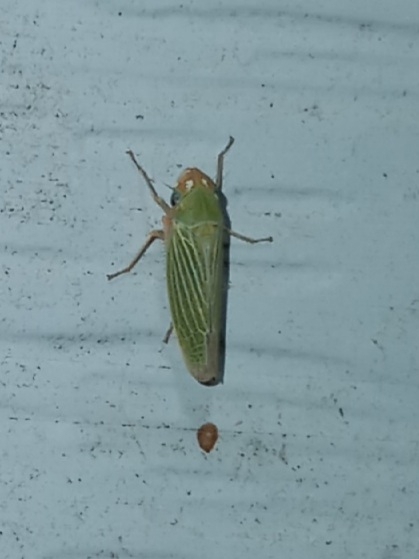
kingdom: Animalia
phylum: Arthropoda
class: Insecta
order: Hemiptera
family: Cicadellidae
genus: Xyphon
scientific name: Xyphon flaviceps
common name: Yellowheaded leafhopper
